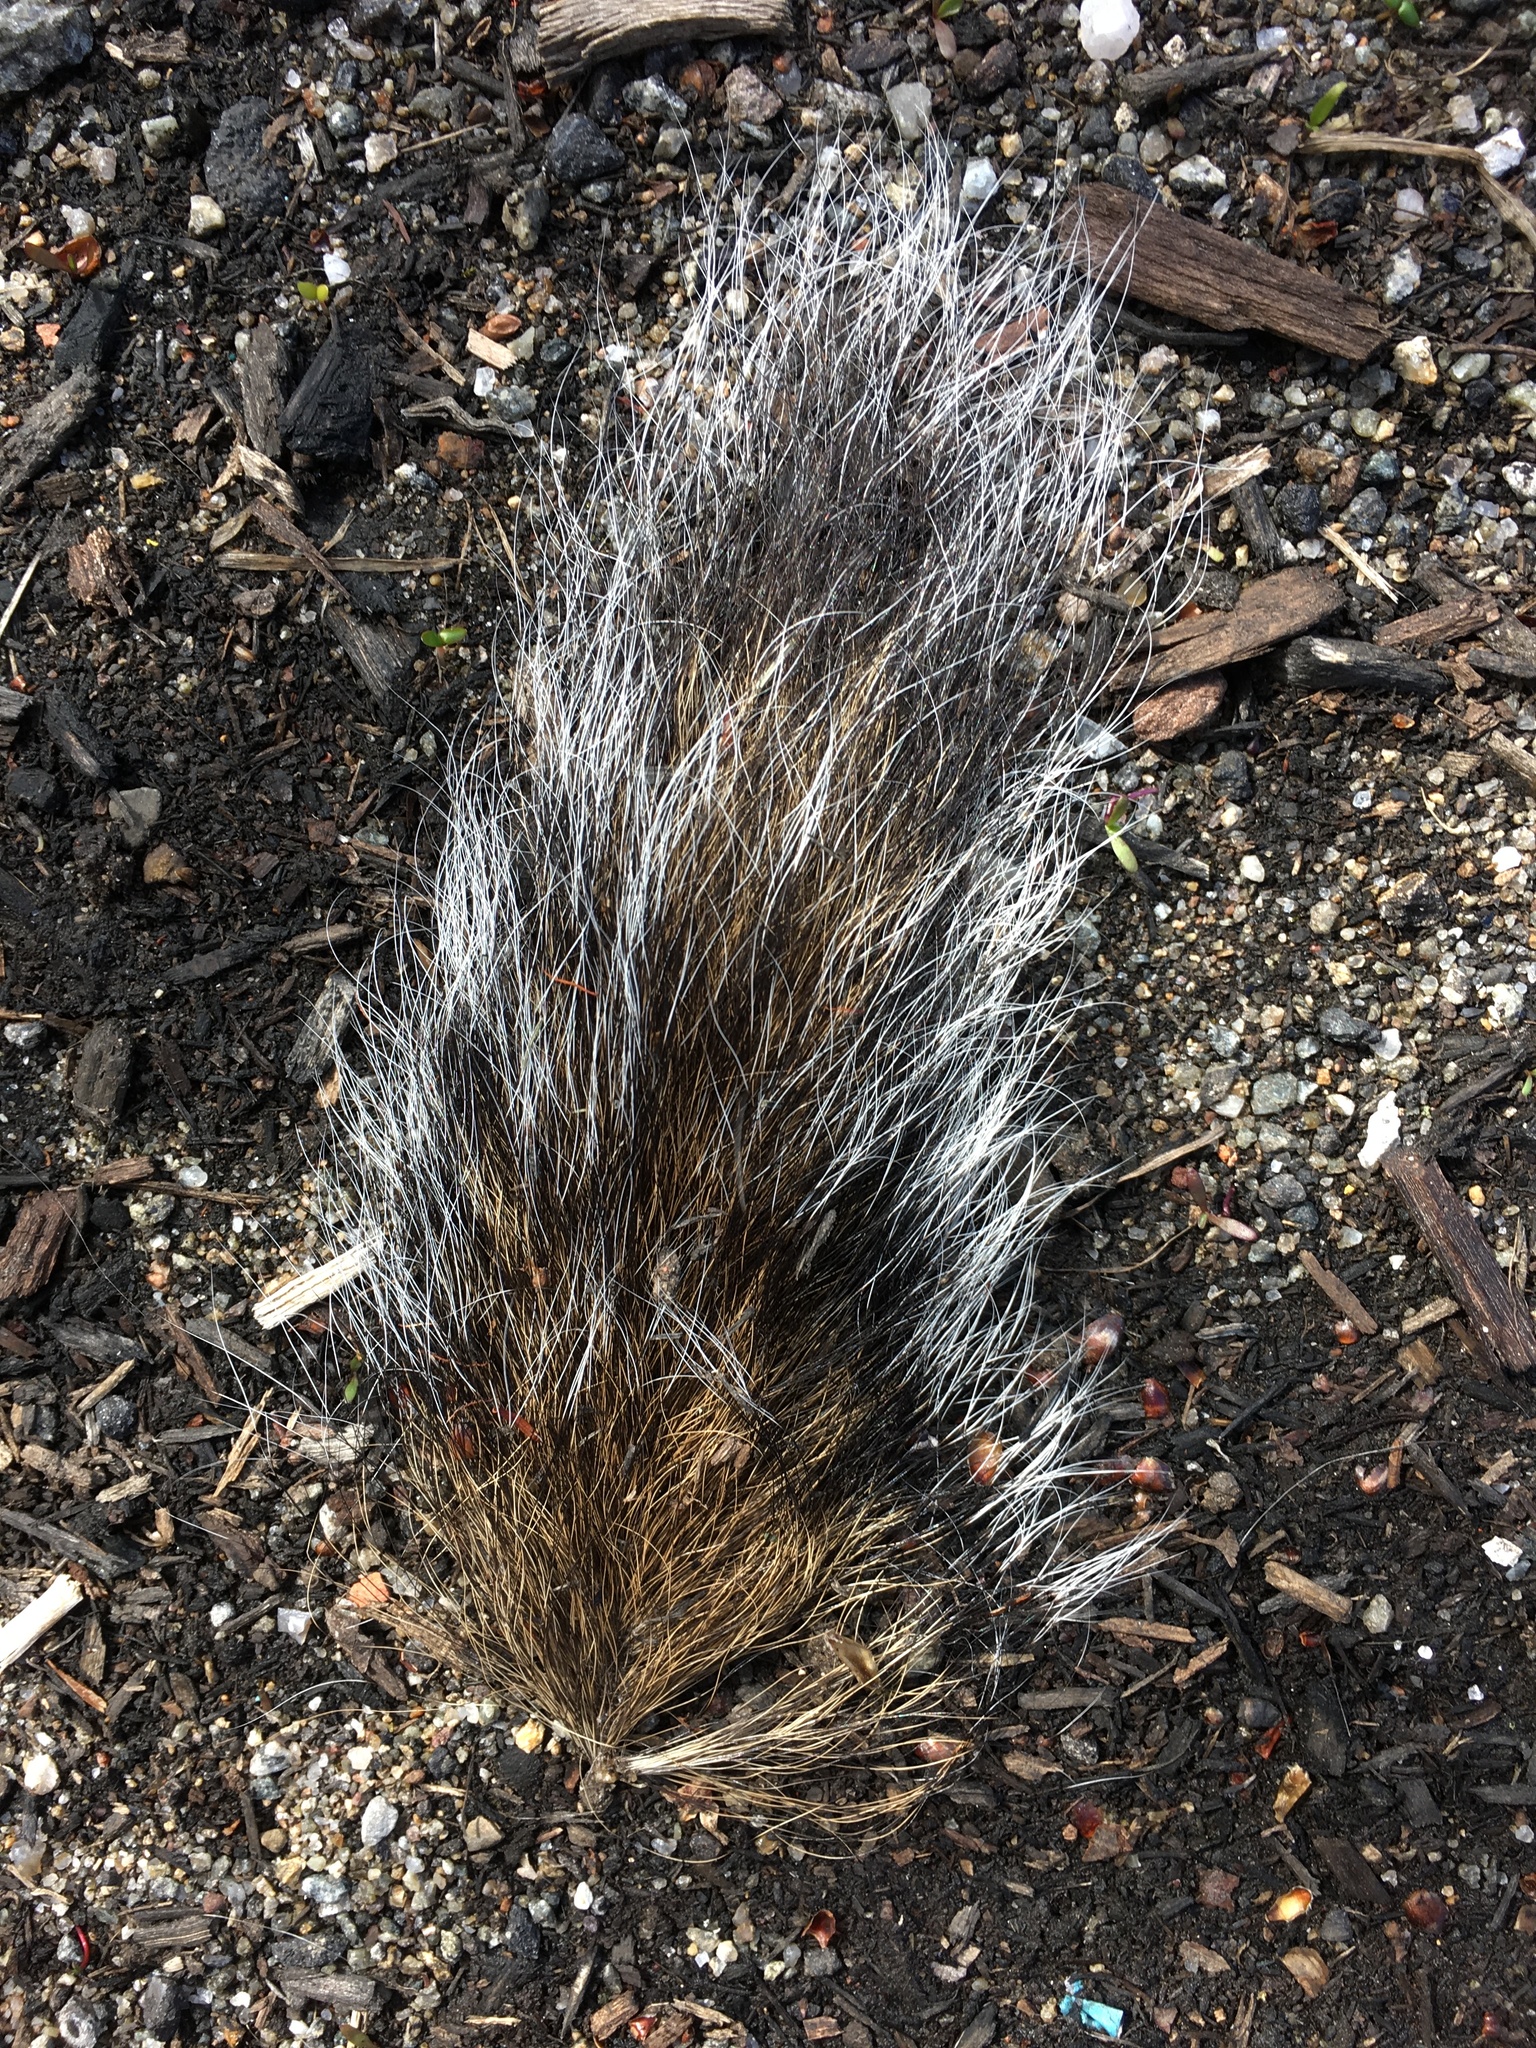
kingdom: Animalia
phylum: Chordata
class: Mammalia
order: Rodentia
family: Sciuridae
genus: Sciurus
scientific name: Sciurus carolinensis
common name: Eastern gray squirrel
